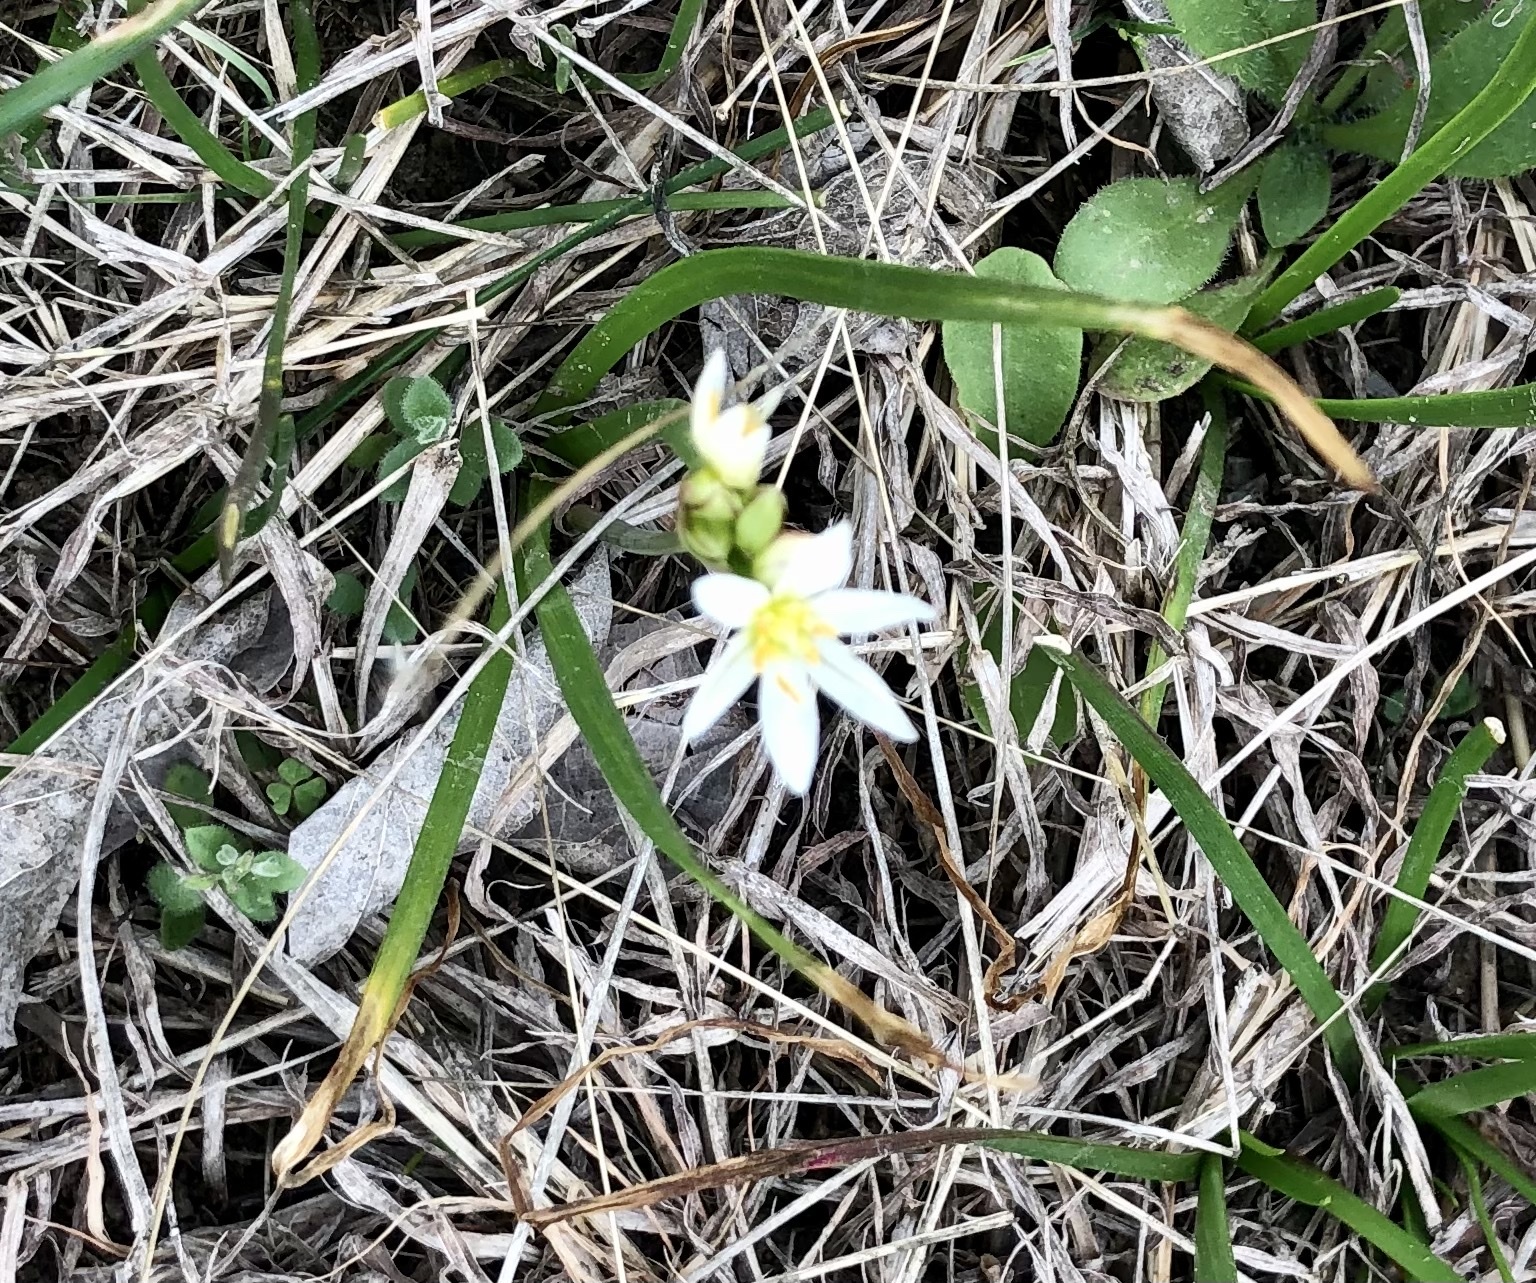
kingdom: Plantae
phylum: Tracheophyta
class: Liliopsida
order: Asparagales
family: Amaryllidaceae
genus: Nothoscordum
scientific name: Nothoscordum bivalve
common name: Crow-poison
